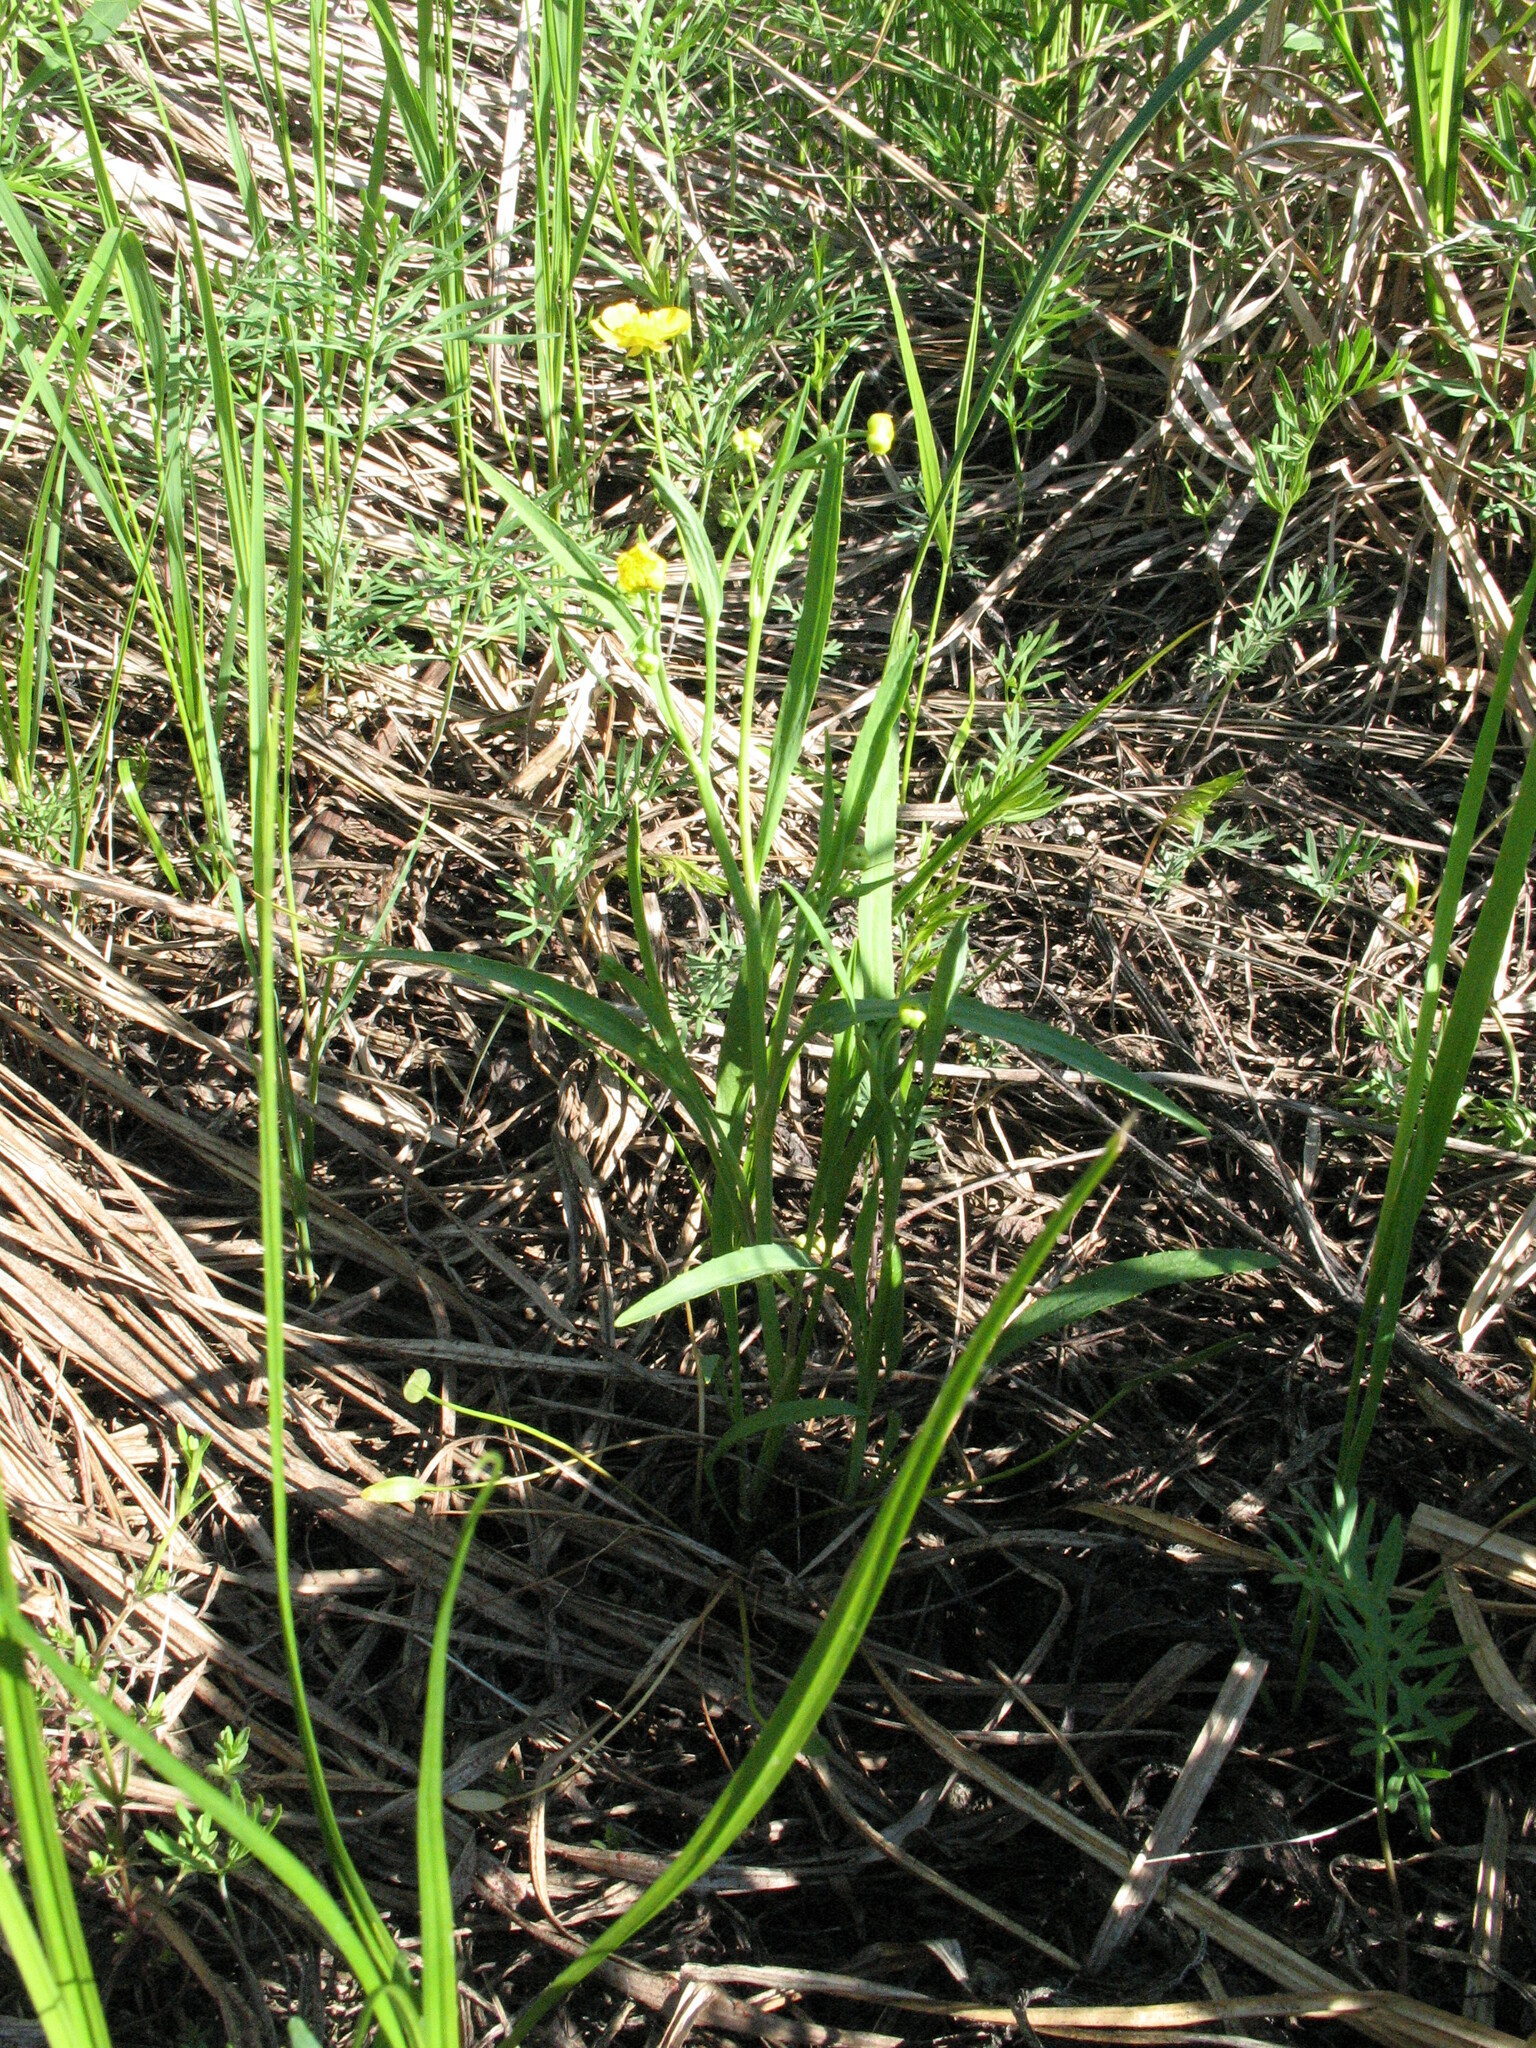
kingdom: Plantae
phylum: Tracheophyta
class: Magnoliopsida
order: Ranunculales
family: Ranunculaceae
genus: Ranunculus
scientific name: Ranunculus flammula
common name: Lesser spearwort
